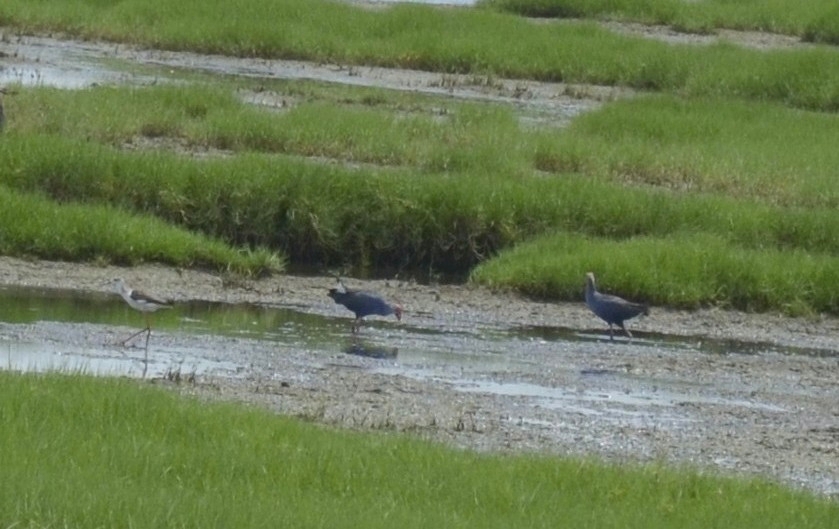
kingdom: Animalia
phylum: Chordata
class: Aves
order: Gruiformes
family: Rallidae
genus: Porphyrio
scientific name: Porphyrio porphyrio
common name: Purple swamphen
